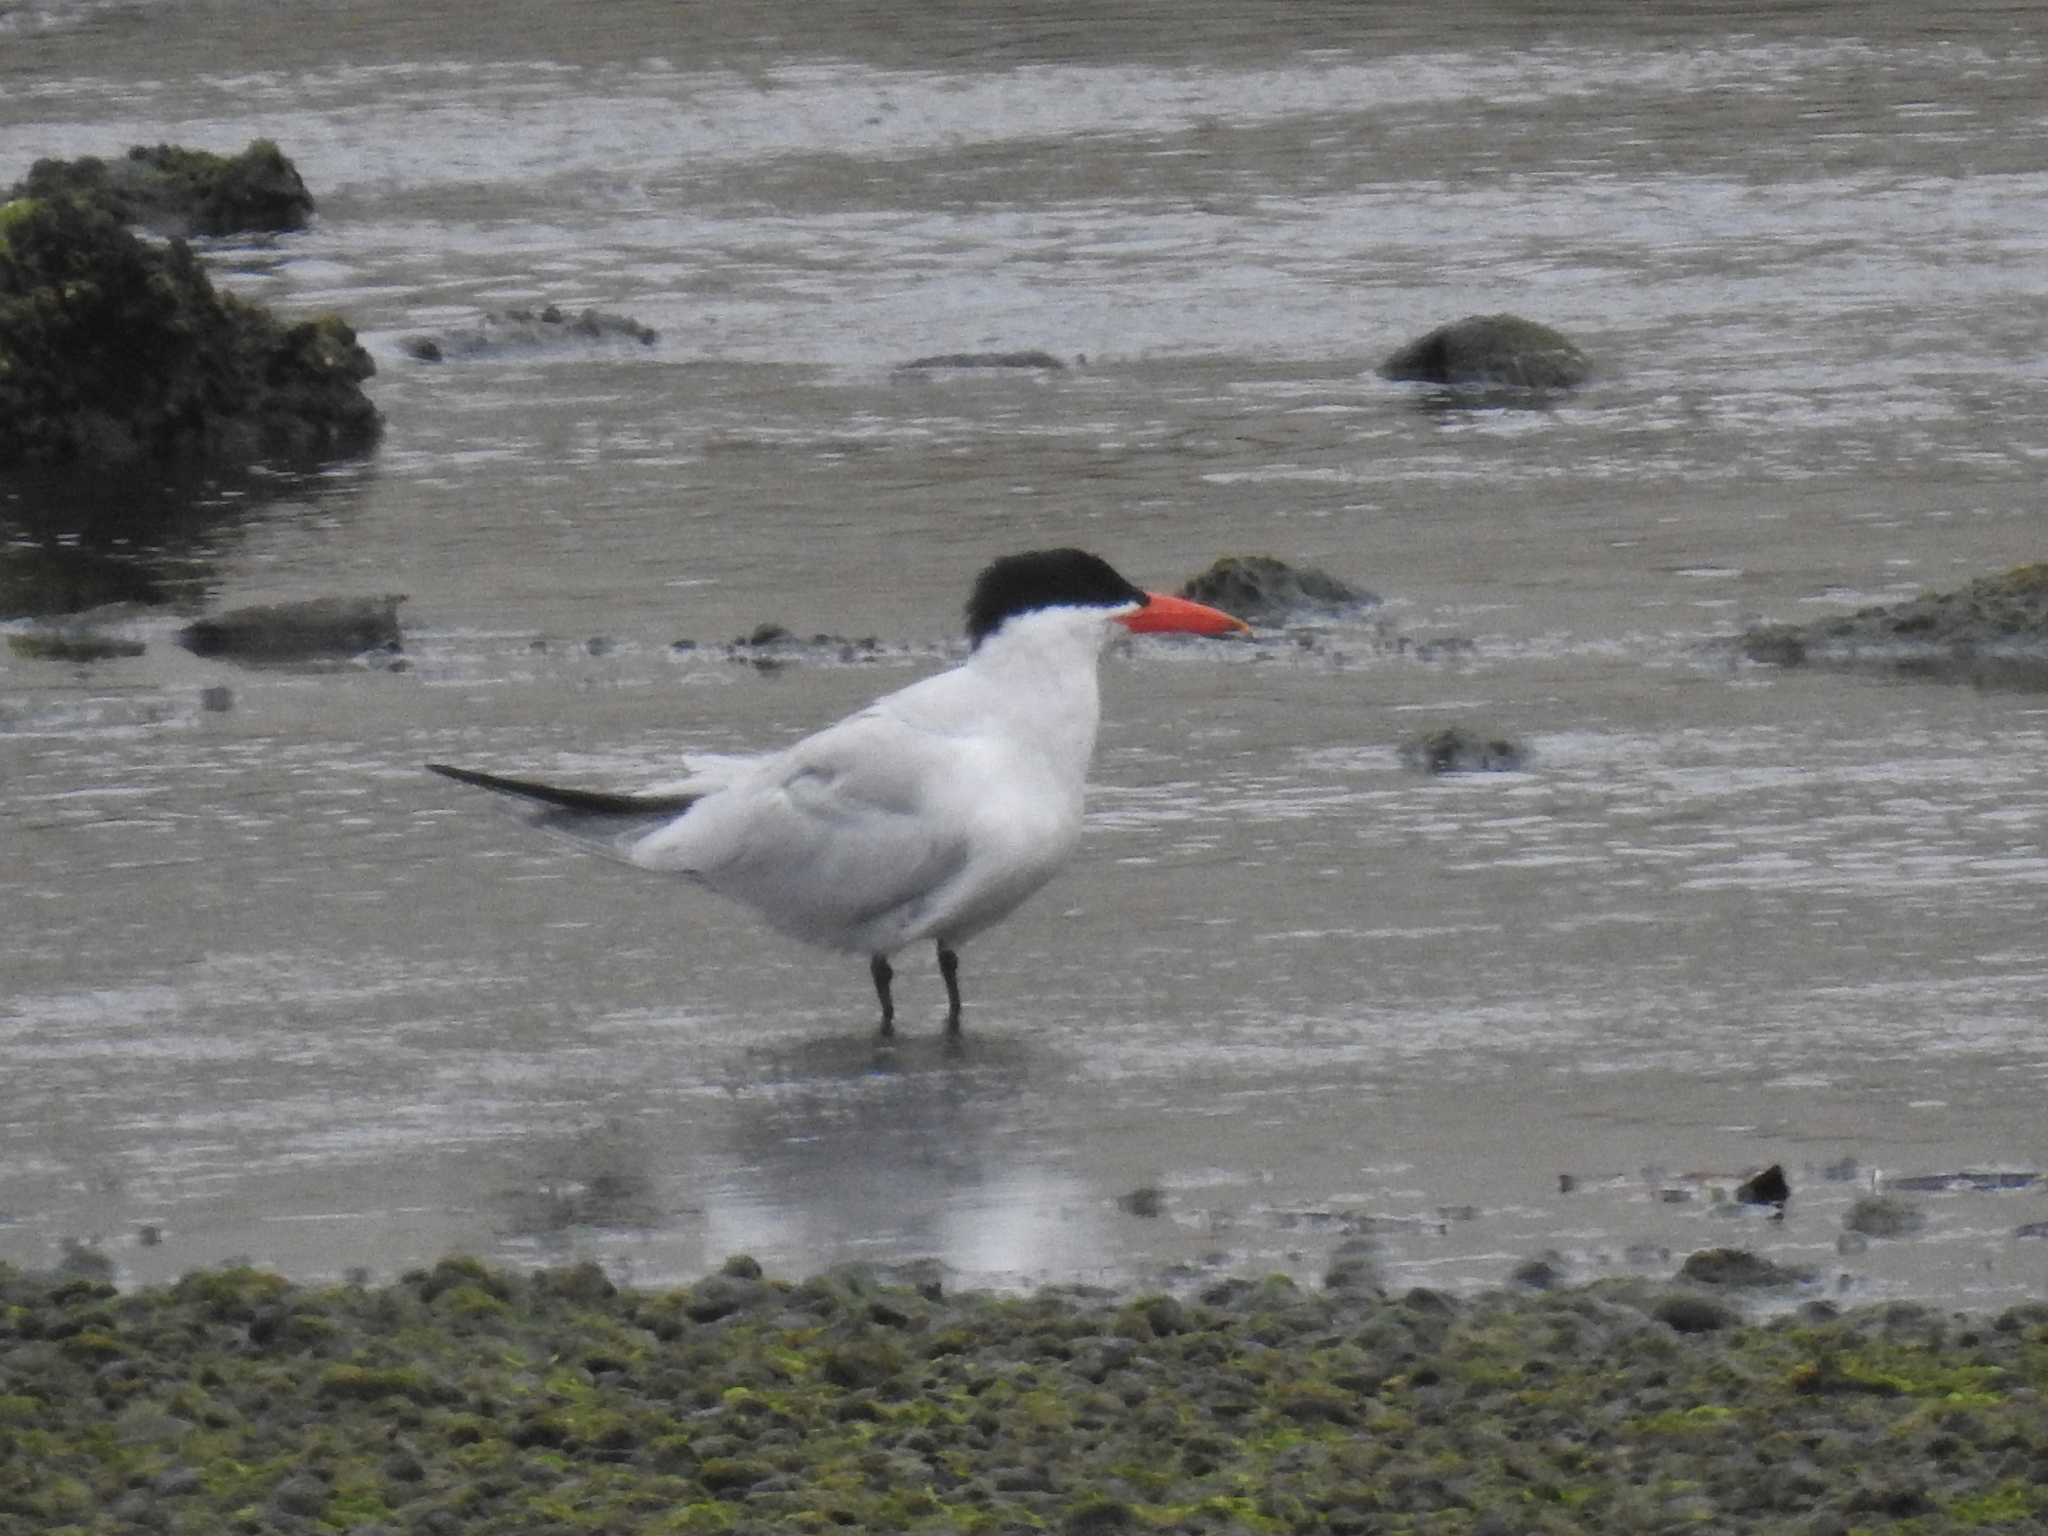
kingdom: Animalia
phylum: Chordata
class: Aves
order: Charadriiformes
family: Laridae
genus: Hydroprogne
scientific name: Hydroprogne caspia
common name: Caspian tern
